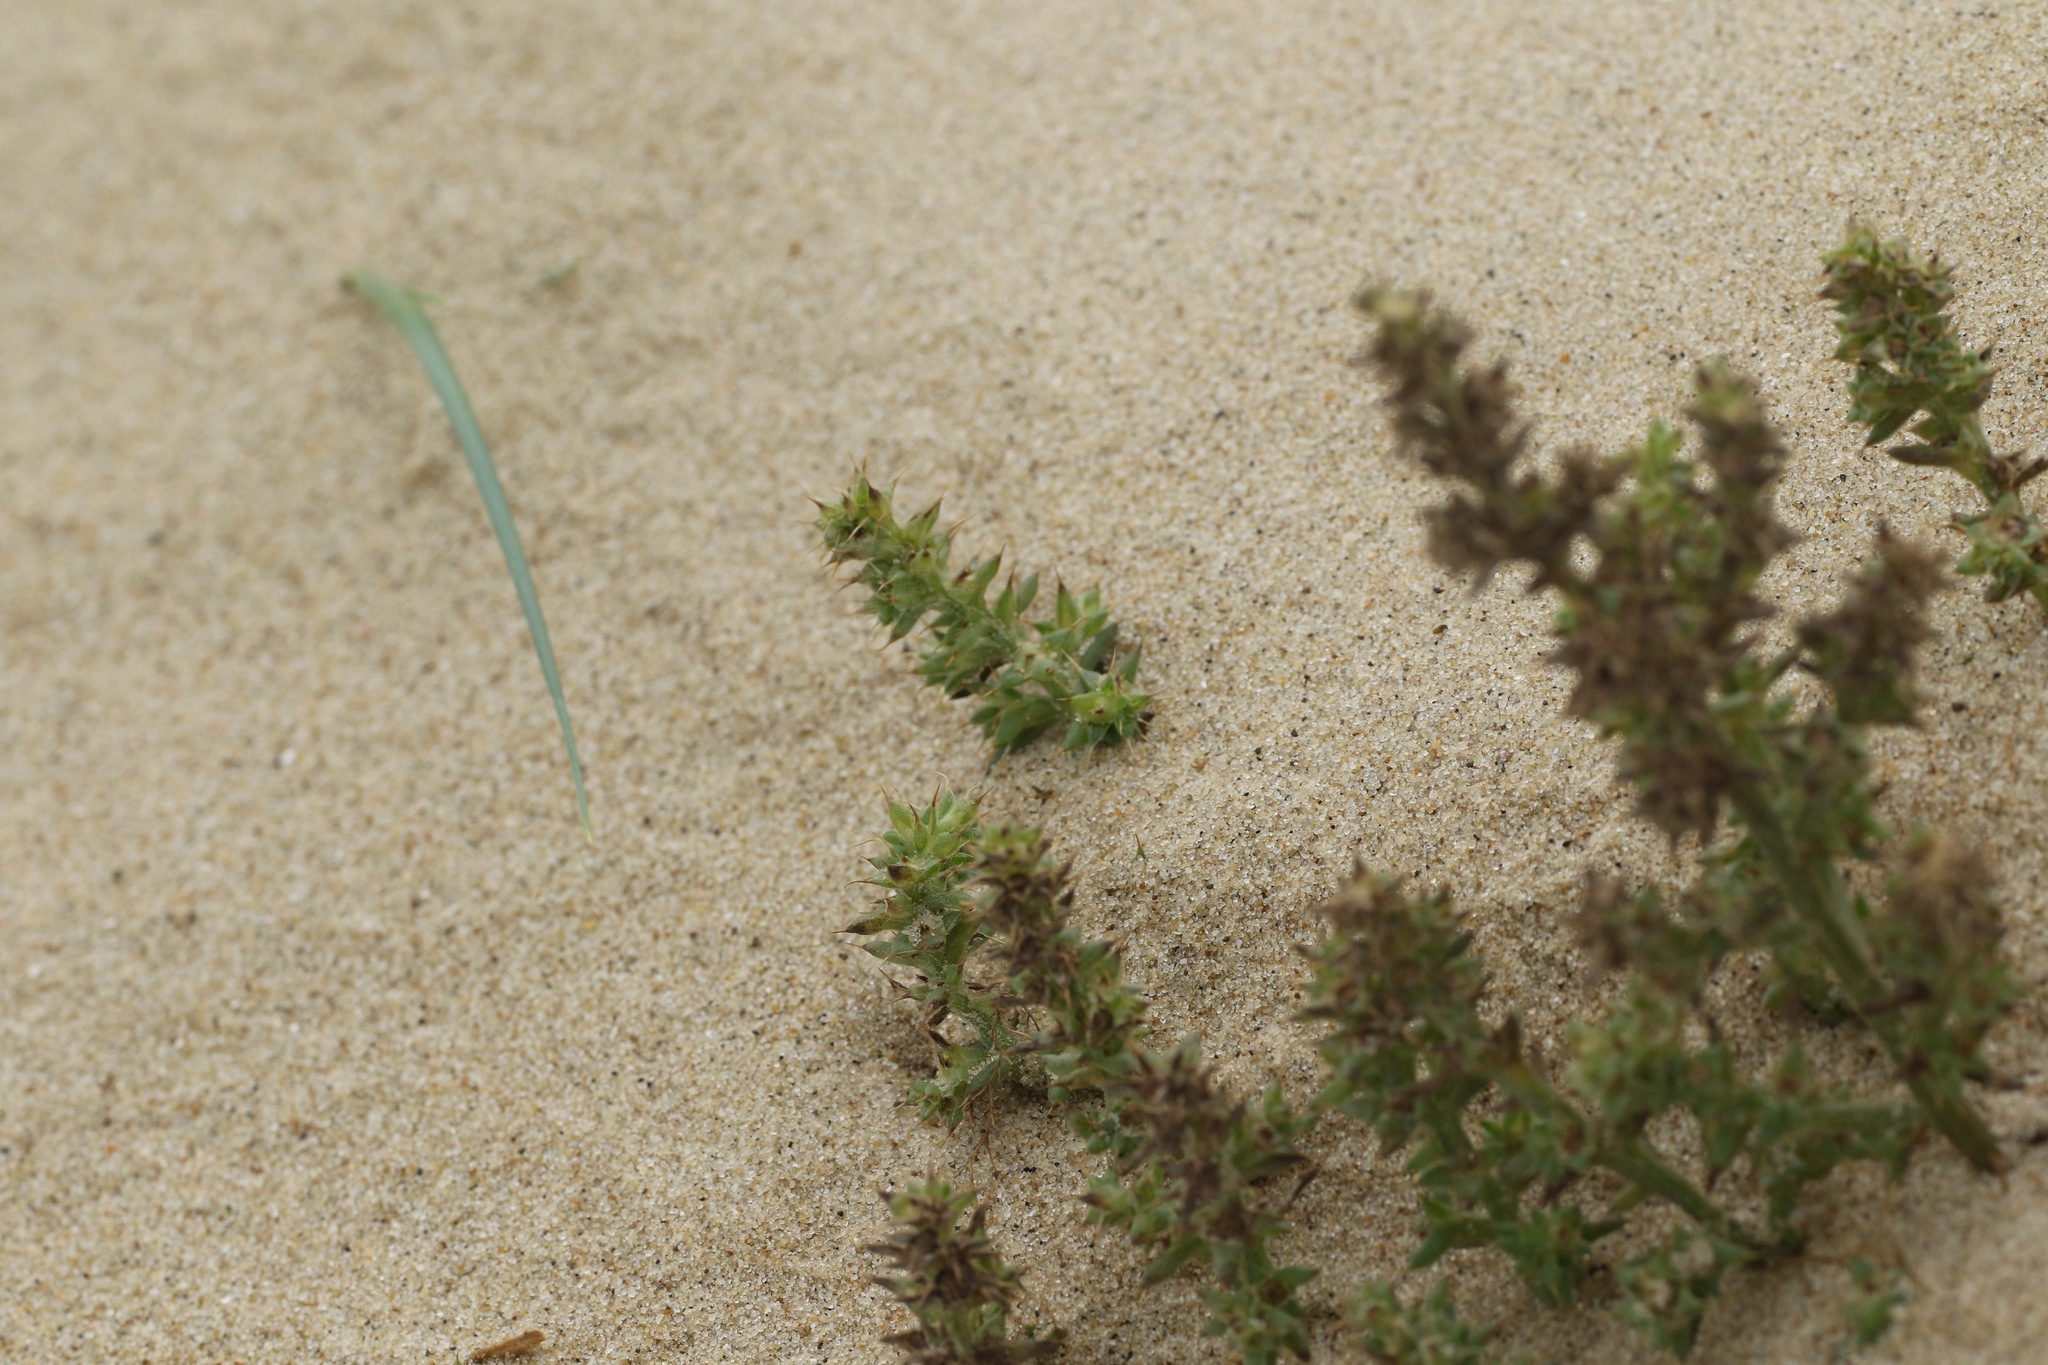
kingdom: Plantae
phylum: Tracheophyta
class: Magnoliopsida
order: Caryophyllales
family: Amaranthaceae
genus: Salsola
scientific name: Salsola kali
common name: Saltwort
